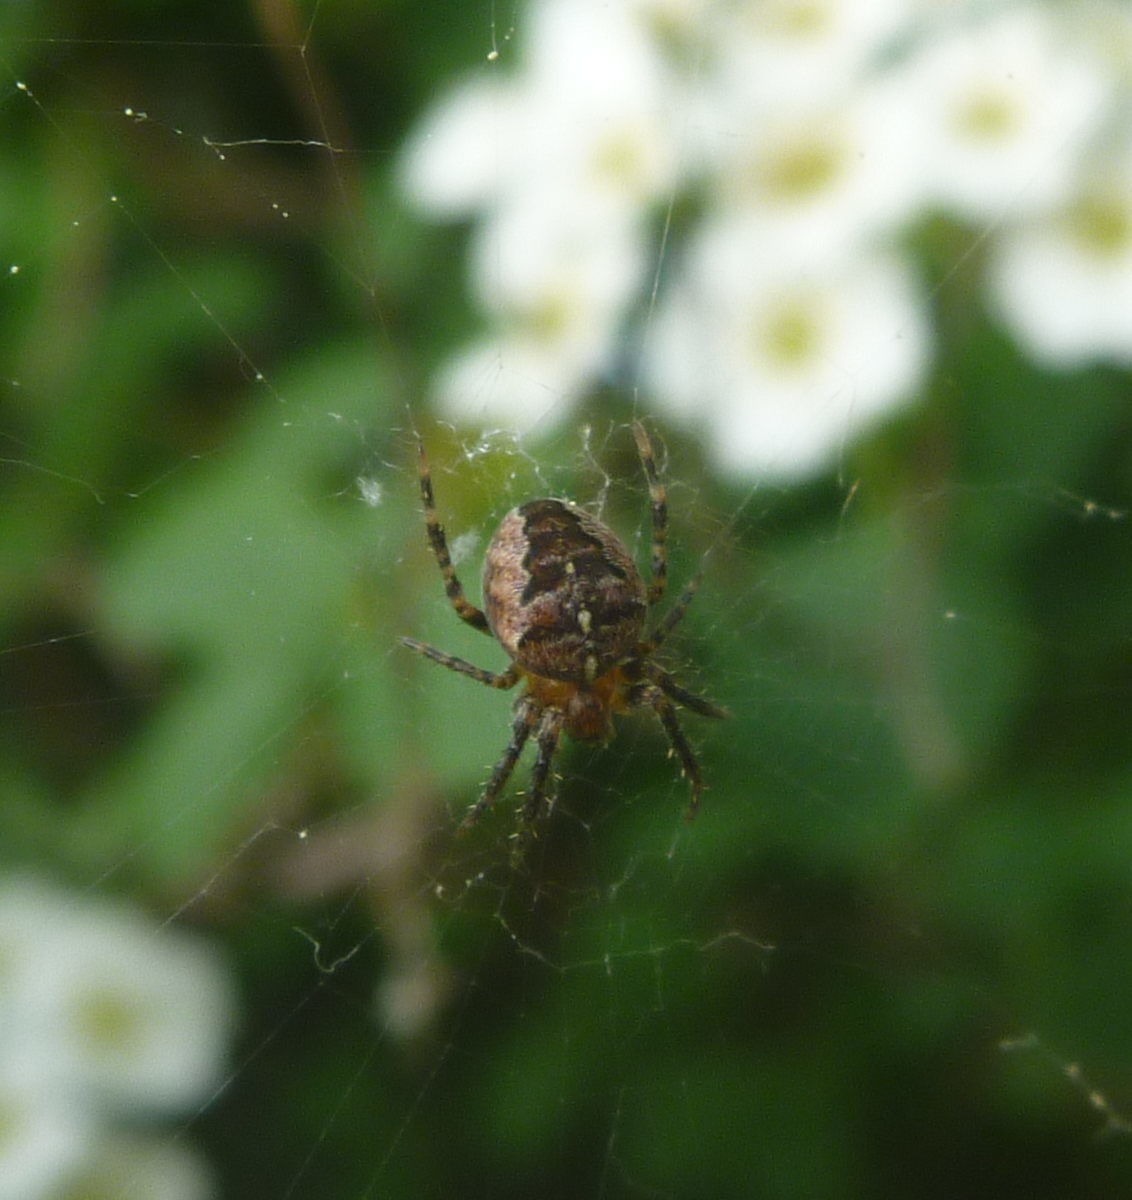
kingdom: Animalia
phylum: Arthropoda
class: Arachnida
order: Araneae
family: Araneidae
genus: Araneus
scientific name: Araneus diadematus
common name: Cross orbweaver
